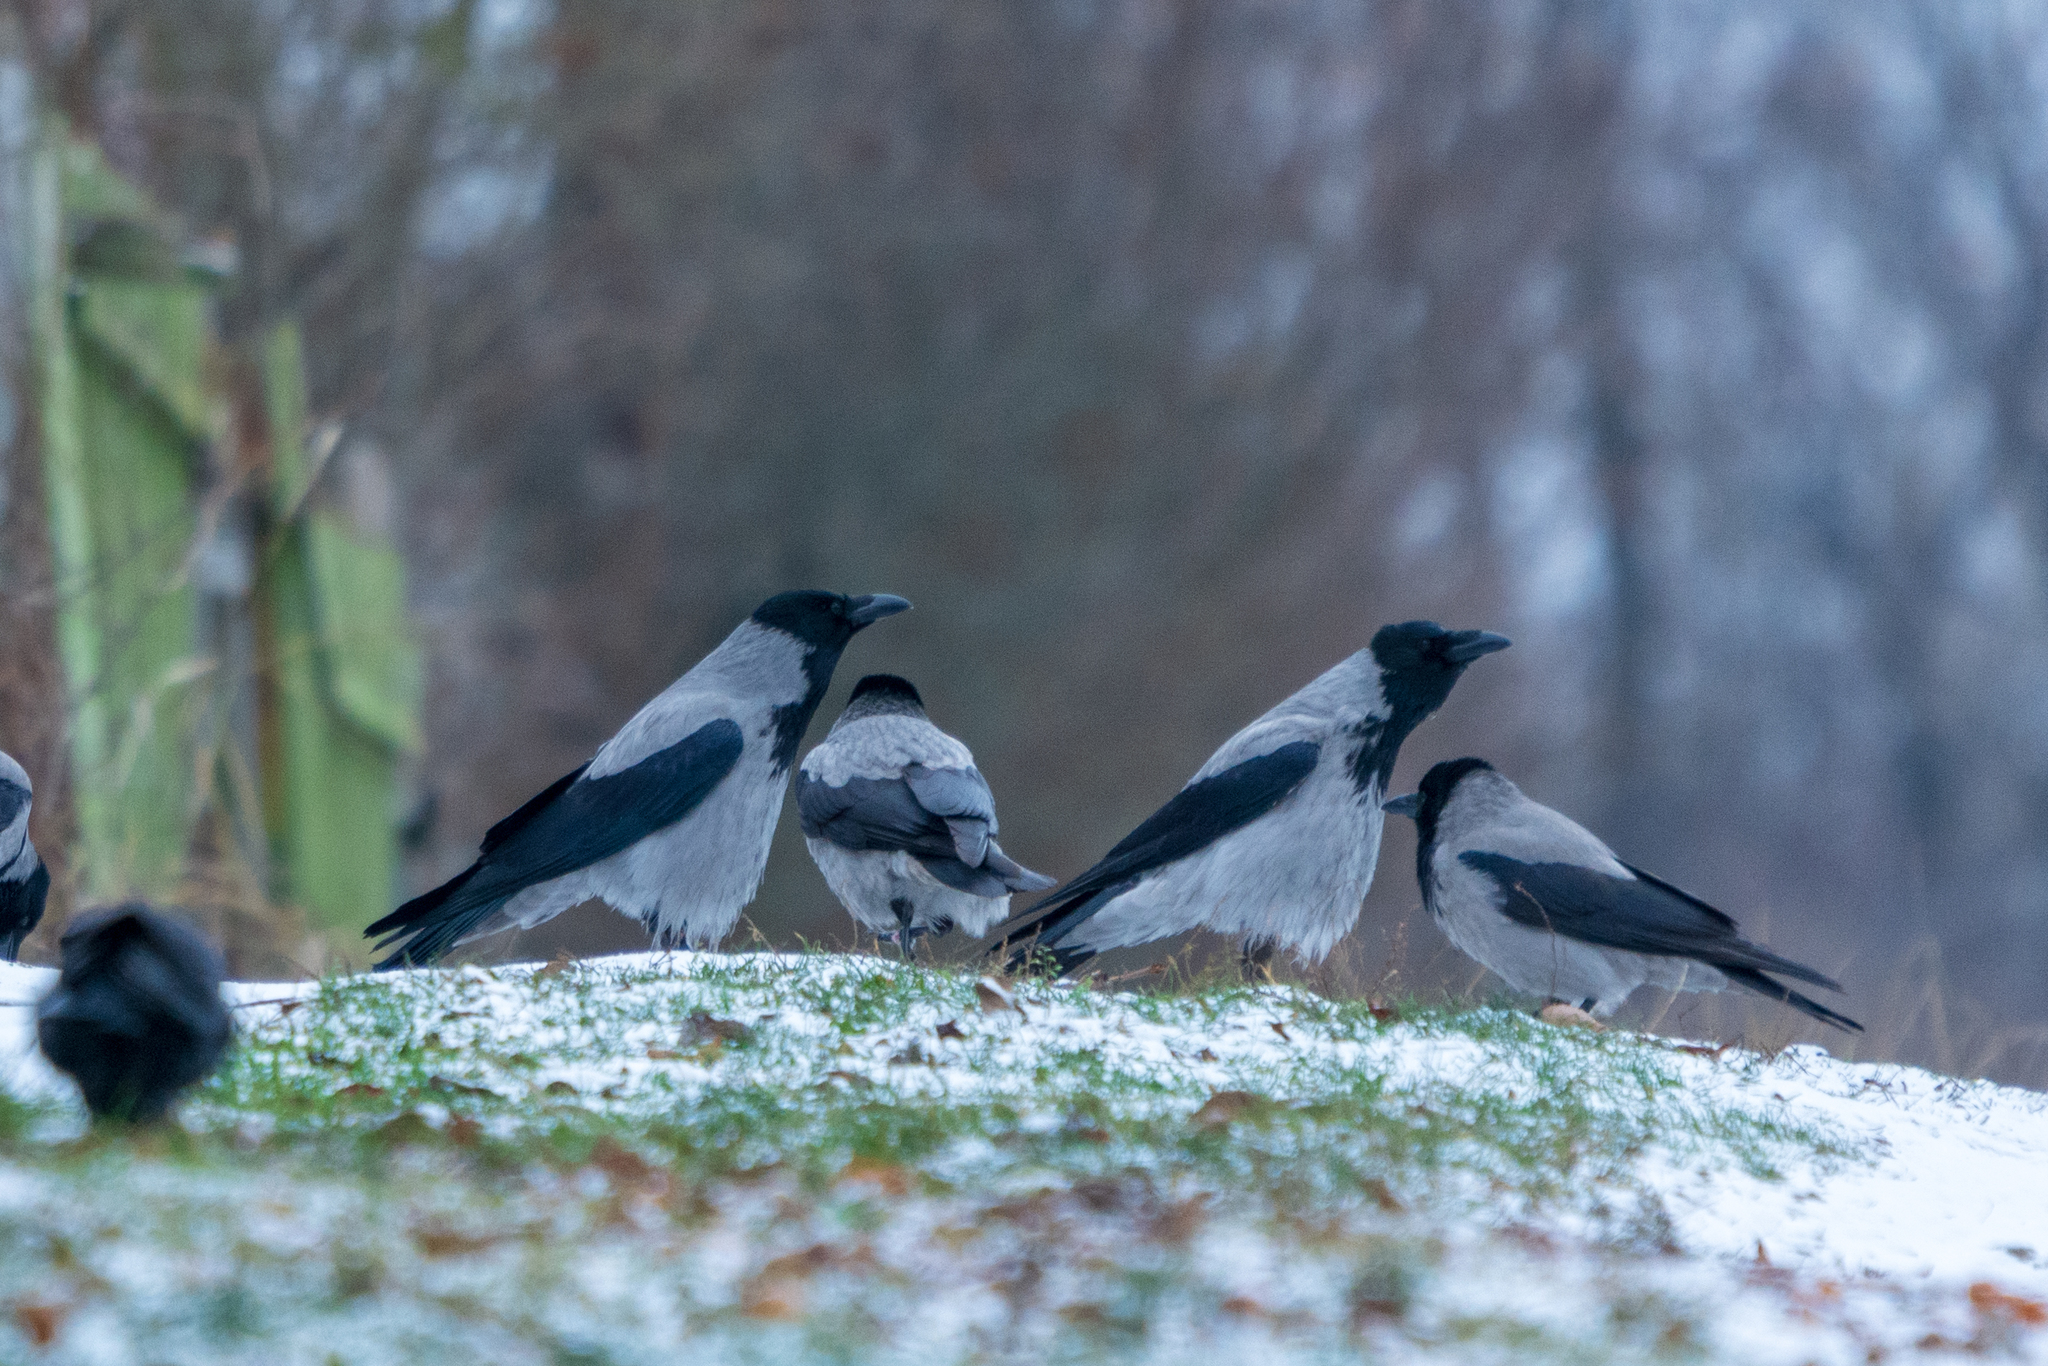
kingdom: Animalia
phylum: Chordata
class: Aves
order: Passeriformes
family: Corvidae
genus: Corvus
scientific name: Corvus cornix
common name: Hooded crow
